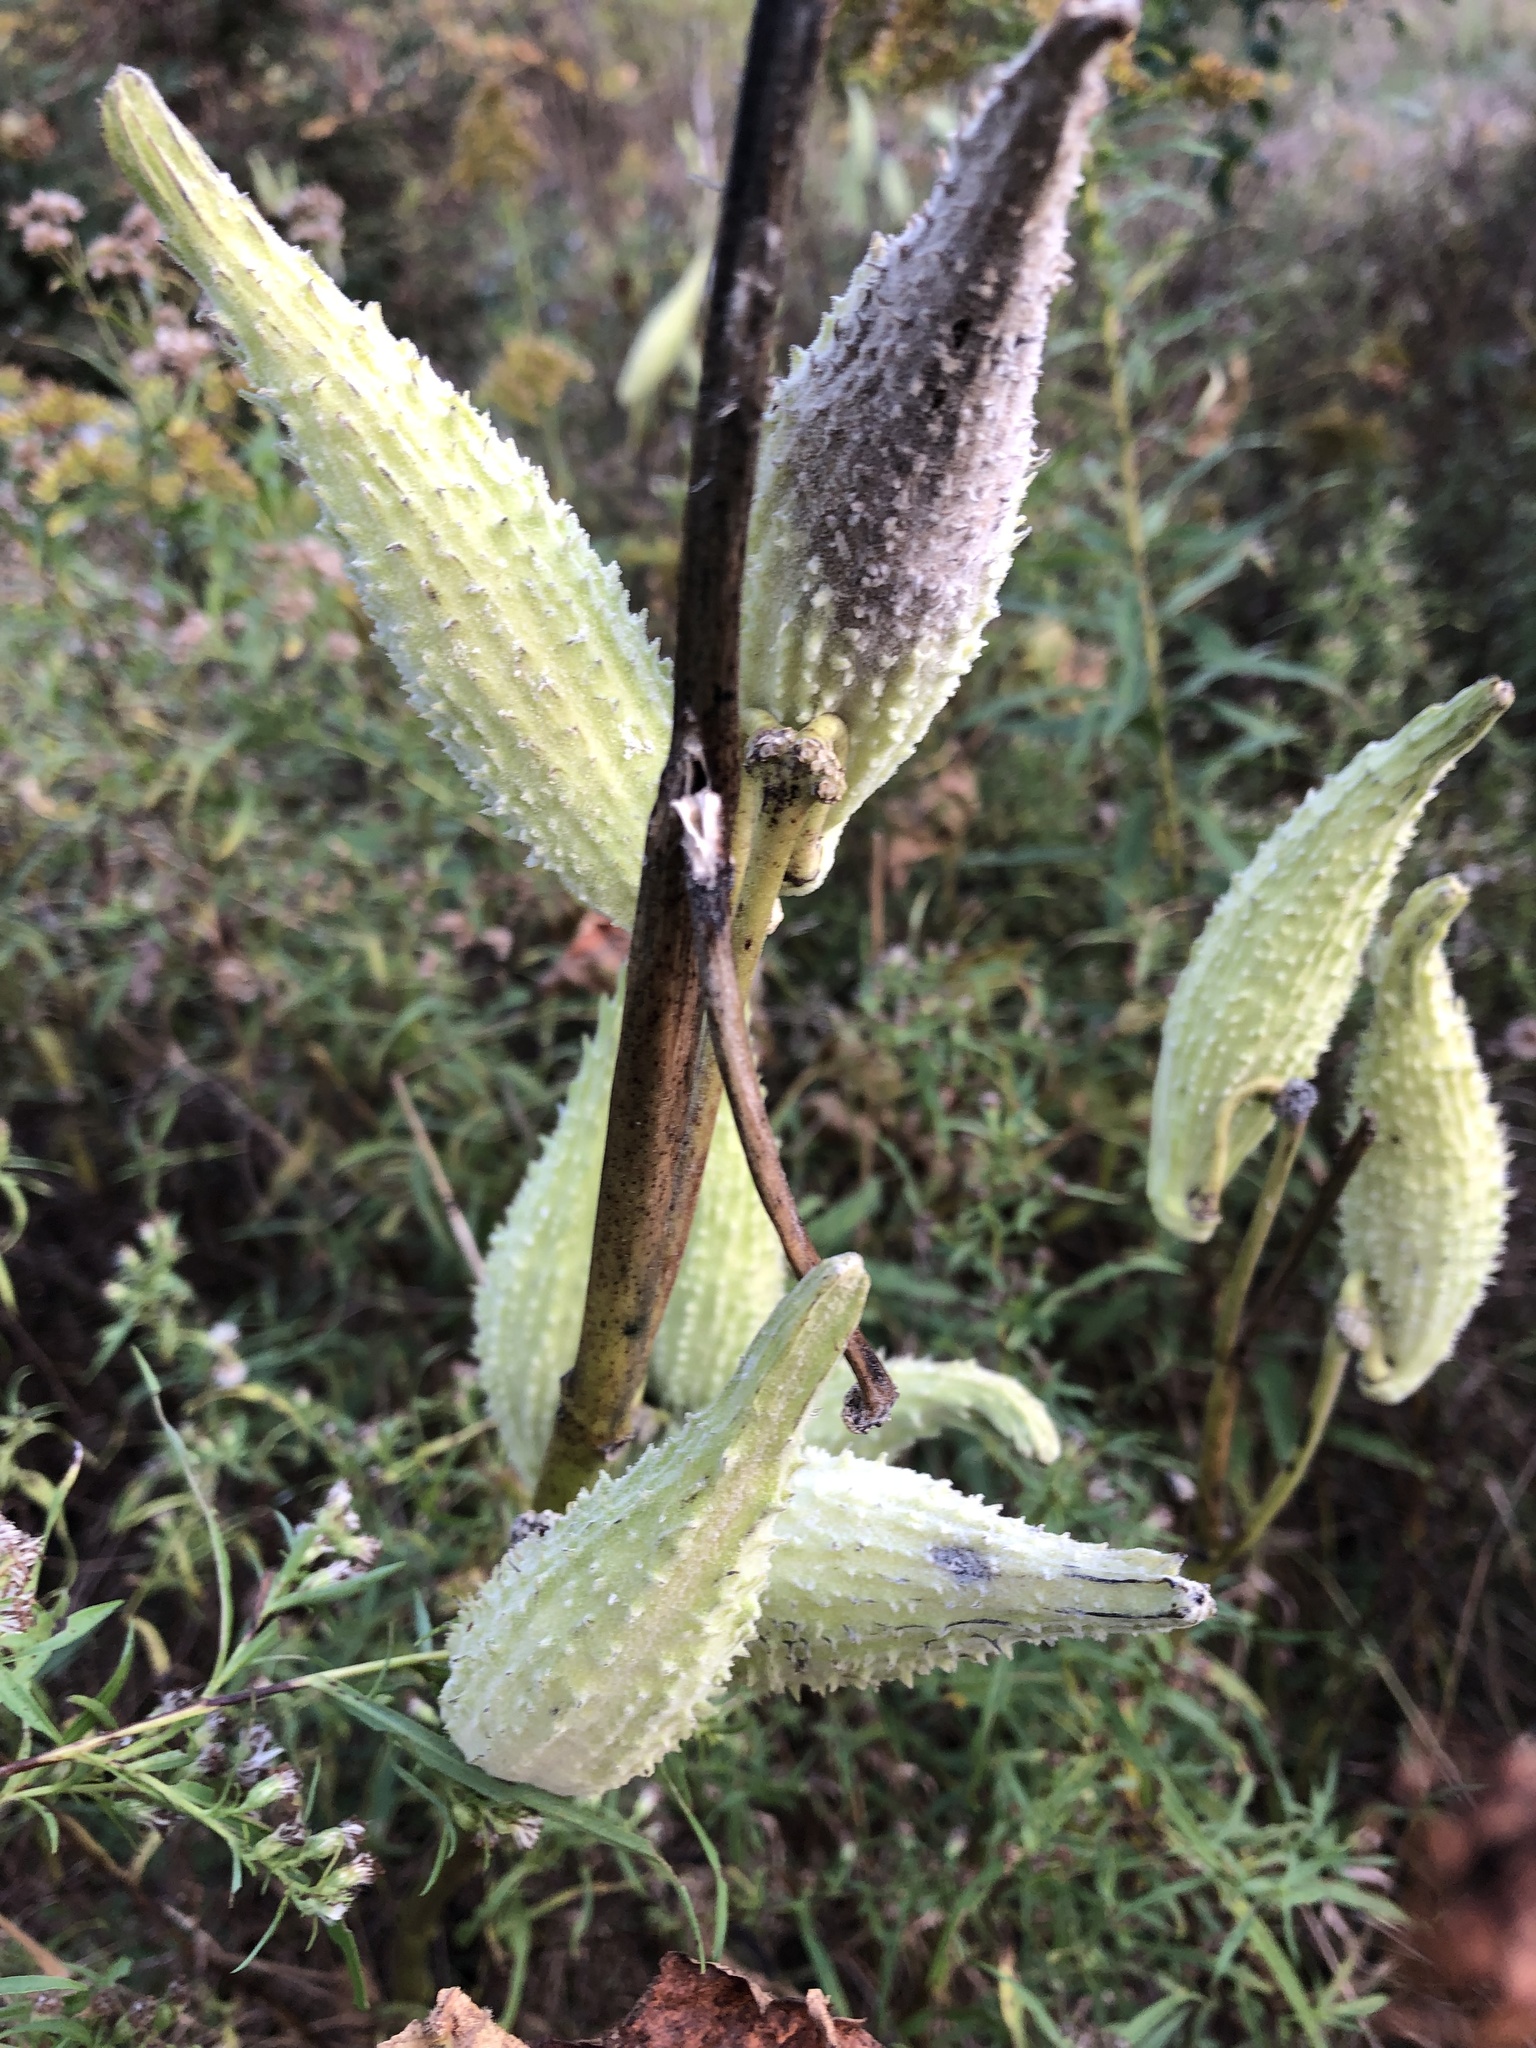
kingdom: Plantae
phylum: Tracheophyta
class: Magnoliopsida
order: Gentianales
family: Apocynaceae
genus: Asclepias
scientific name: Asclepias syriaca
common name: Common milkweed
